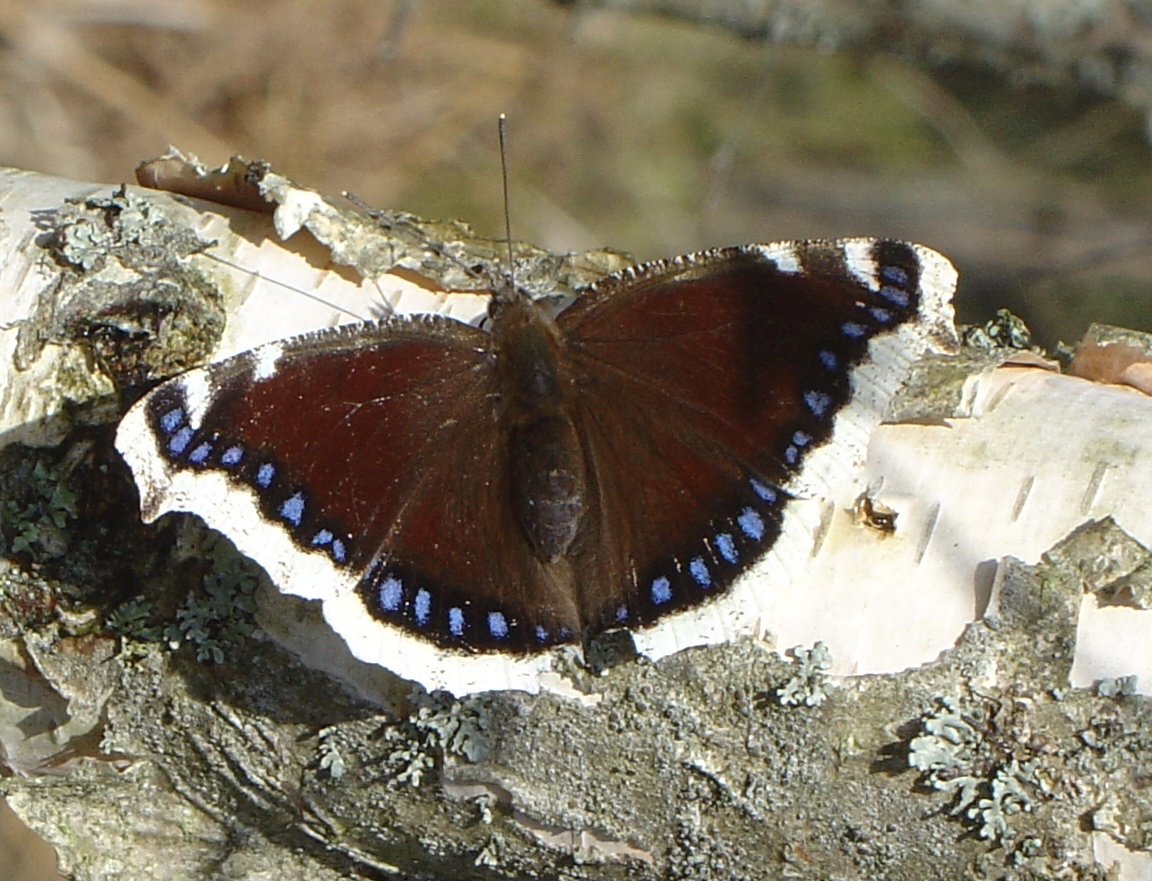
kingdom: Animalia
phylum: Arthropoda
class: Insecta
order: Lepidoptera
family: Nymphalidae
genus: Nymphalis
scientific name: Nymphalis antiopa
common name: Camberwell beauty
